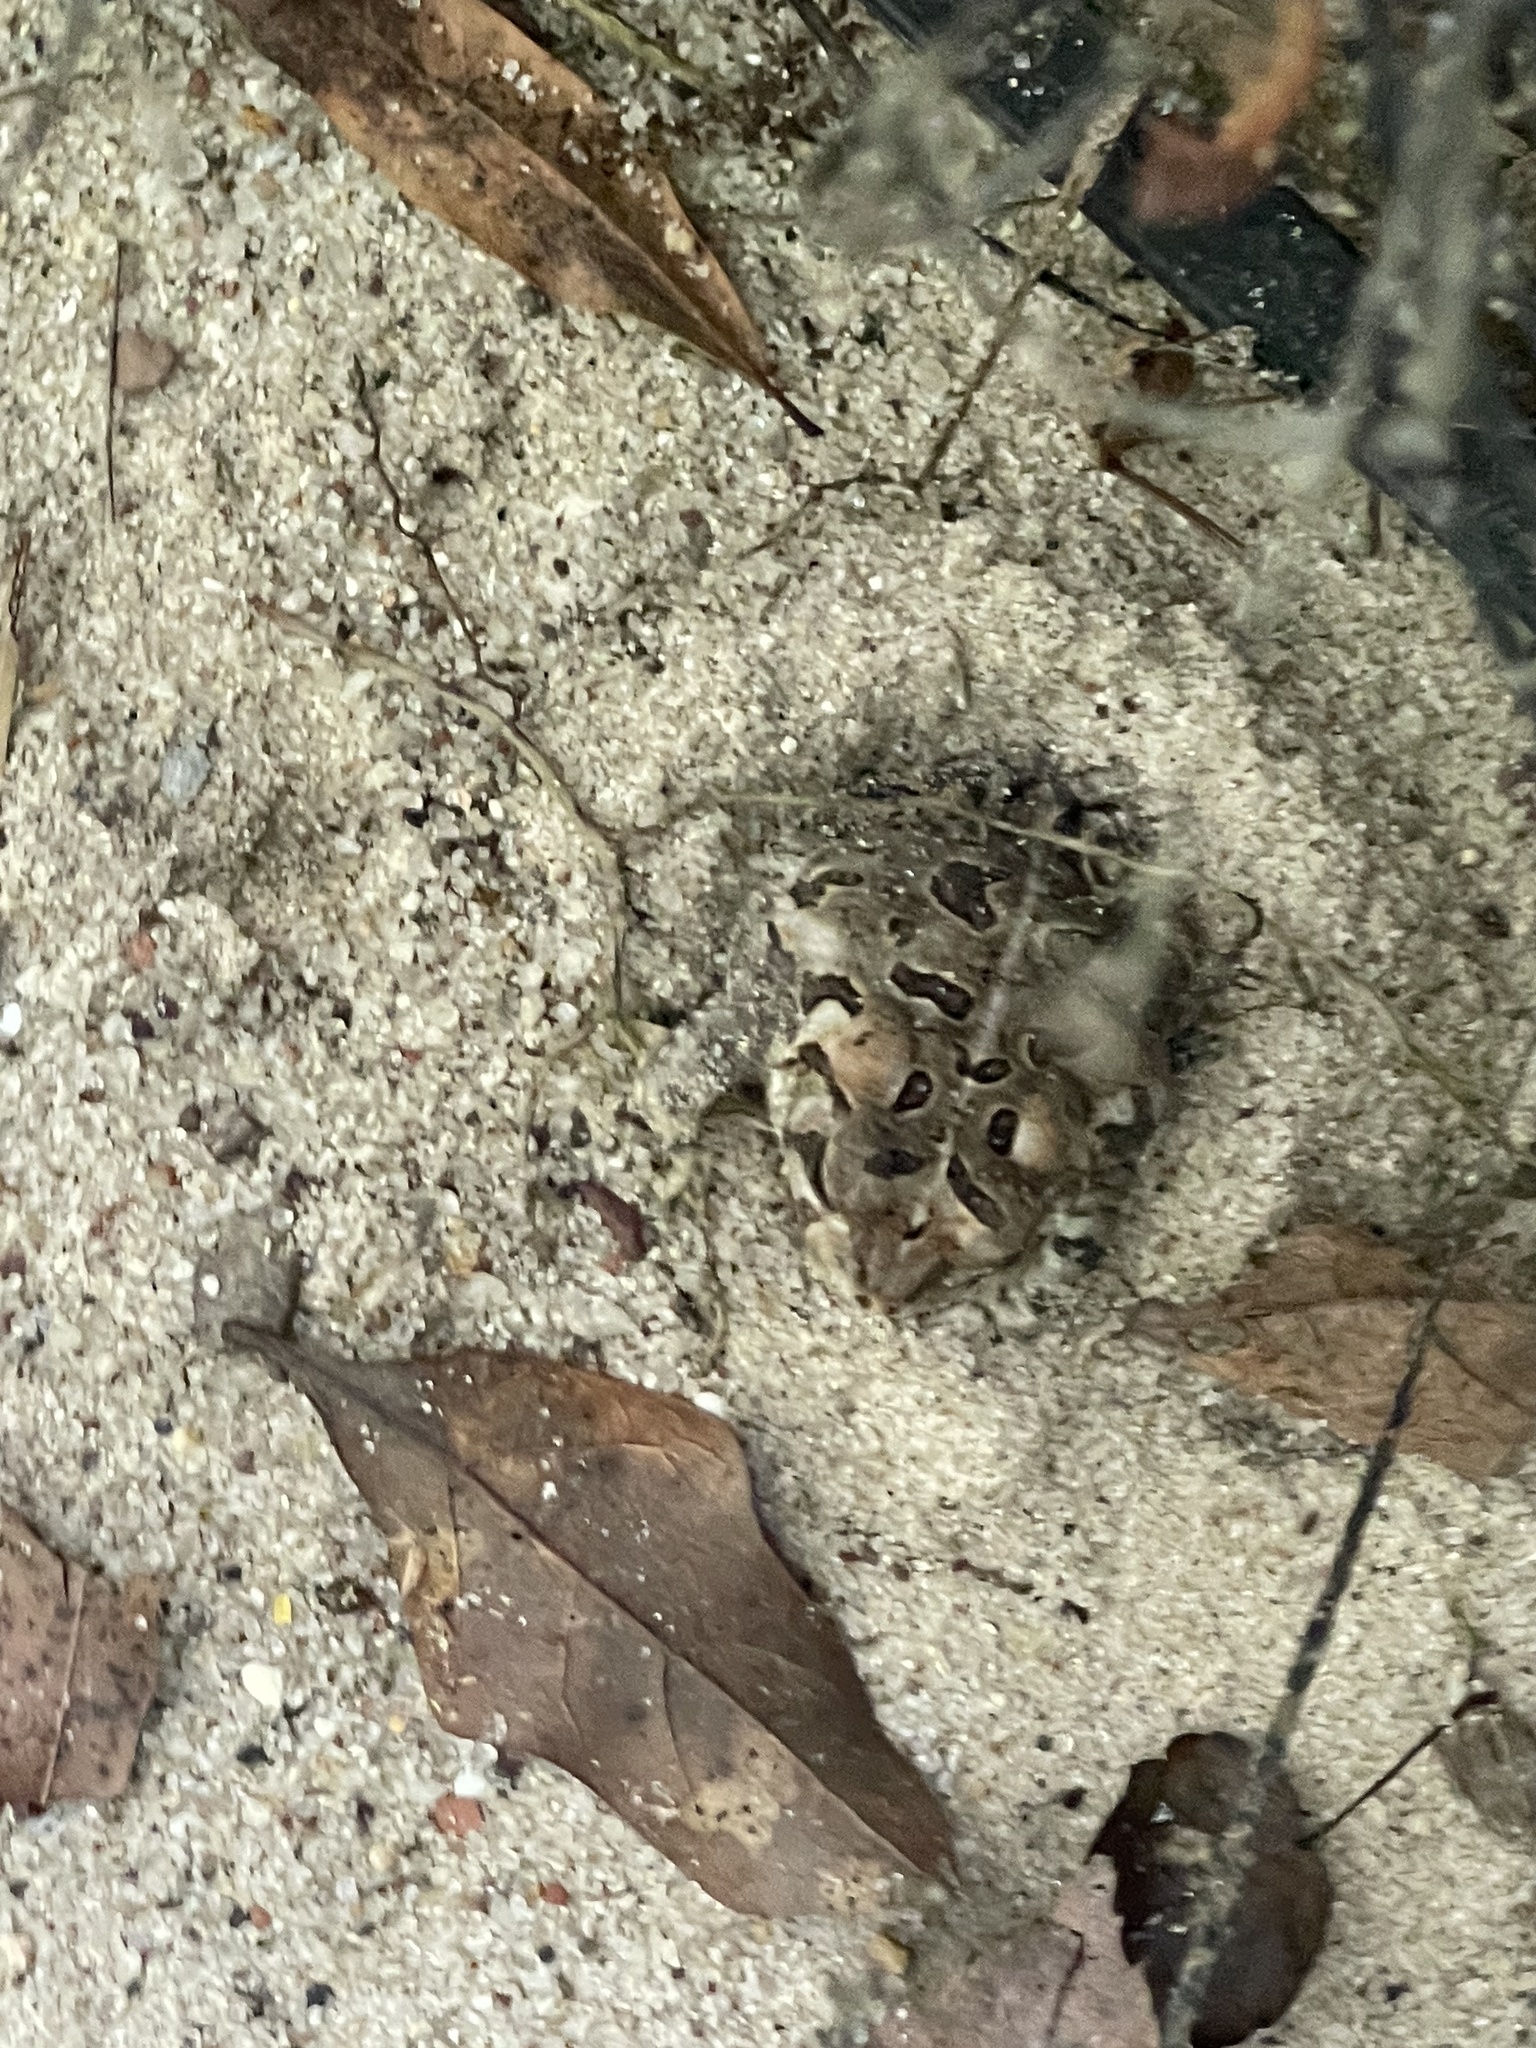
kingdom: Animalia
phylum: Chordata
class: Amphibia
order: Anura
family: Bufonidae
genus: Anaxyrus
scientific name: Anaxyrus fowleri
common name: Fowler's toad
